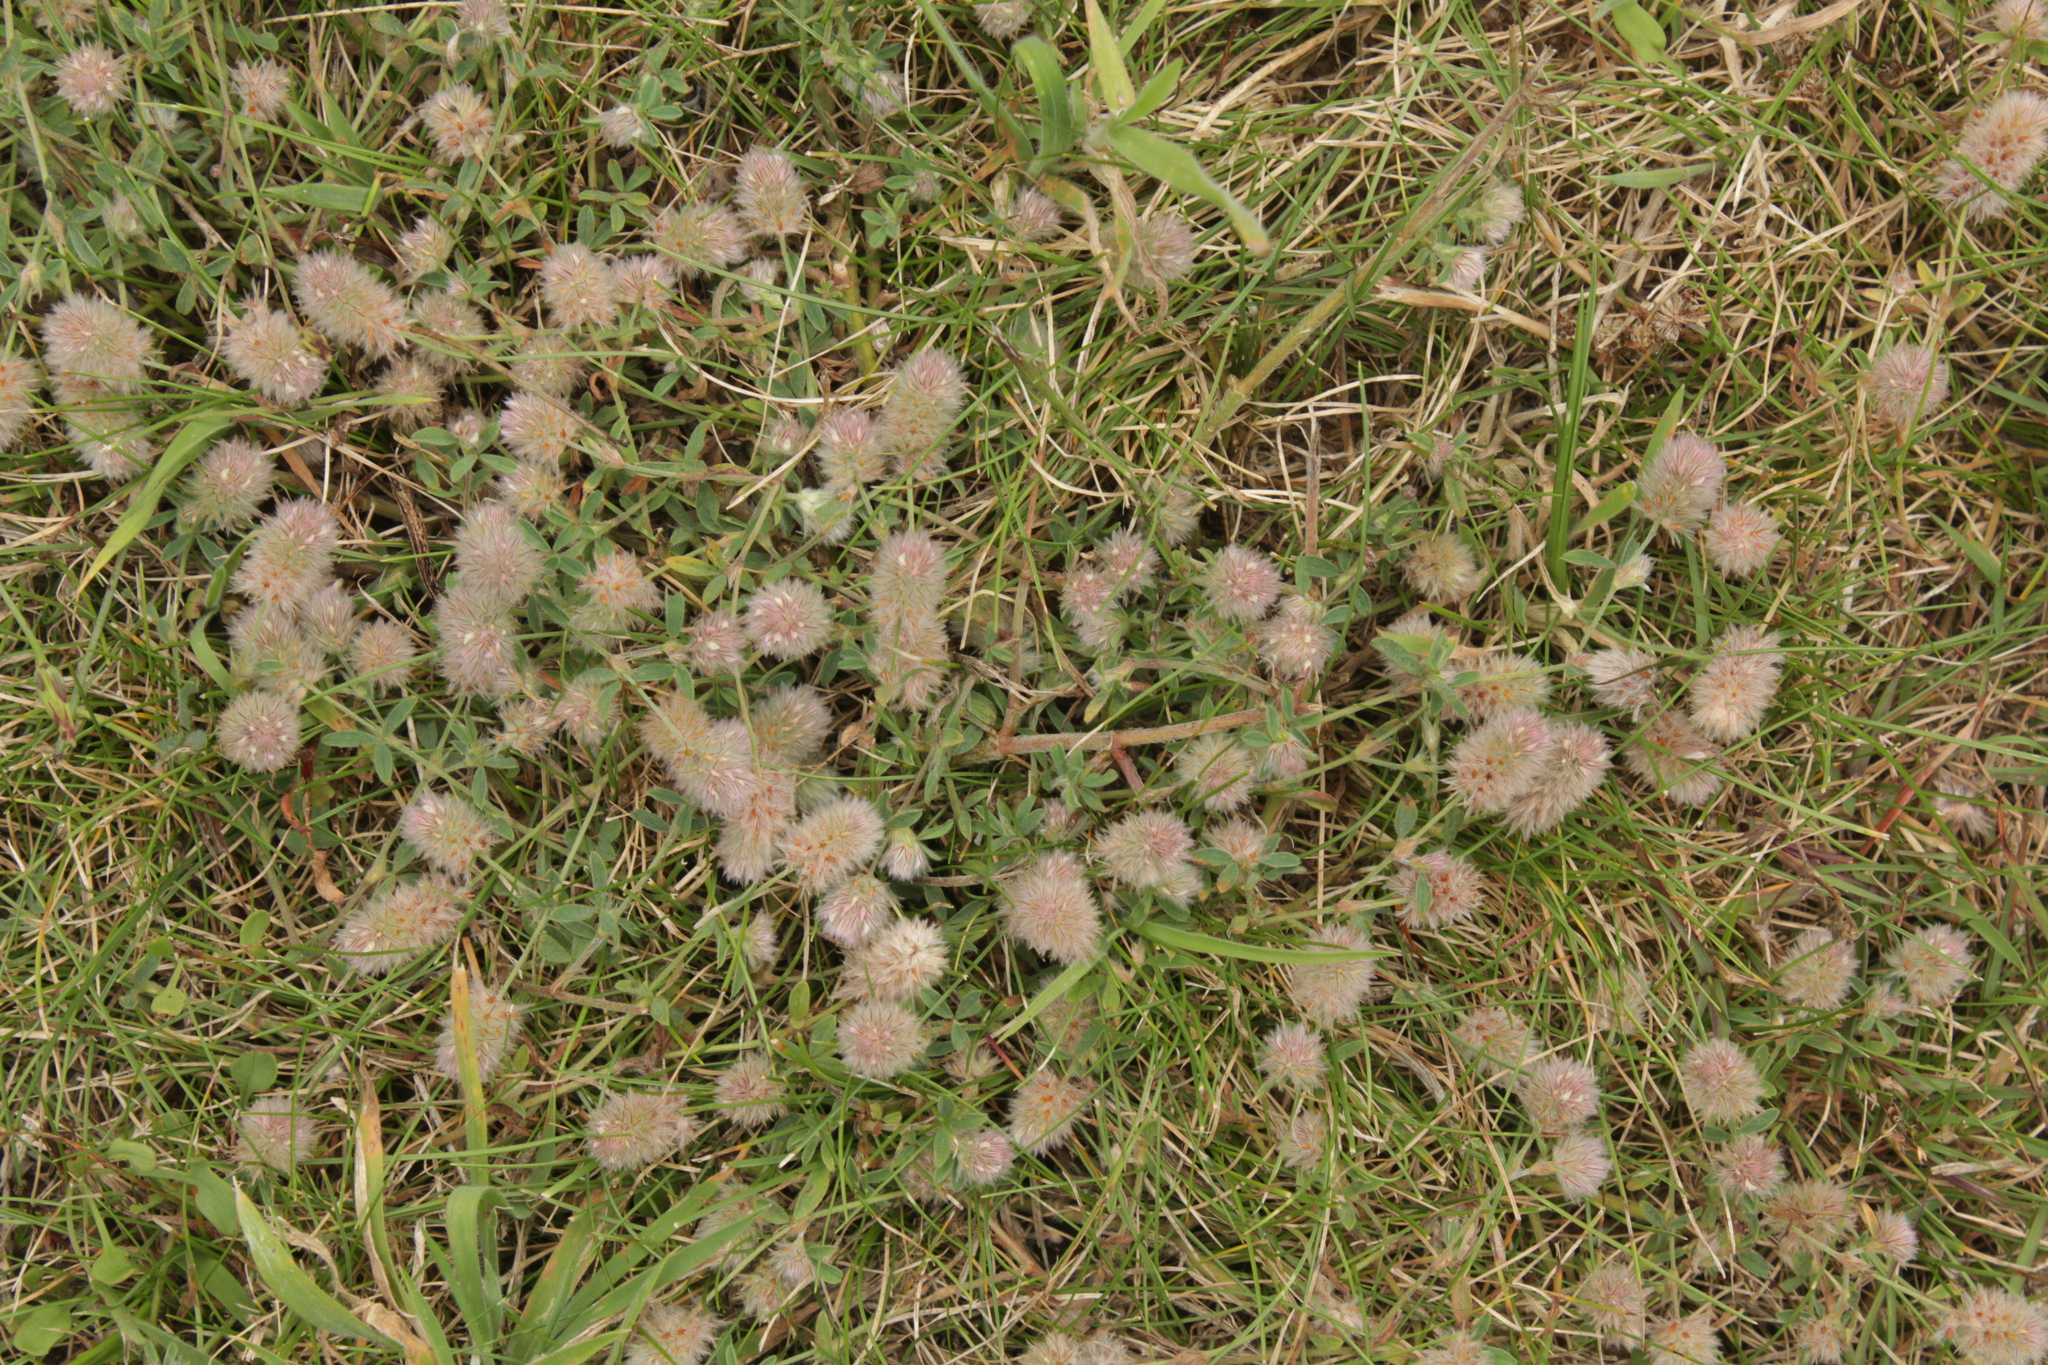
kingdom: Plantae
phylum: Tracheophyta
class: Magnoliopsida
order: Fabales
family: Fabaceae
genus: Trifolium
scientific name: Trifolium arvense
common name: Hare's-foot clover
